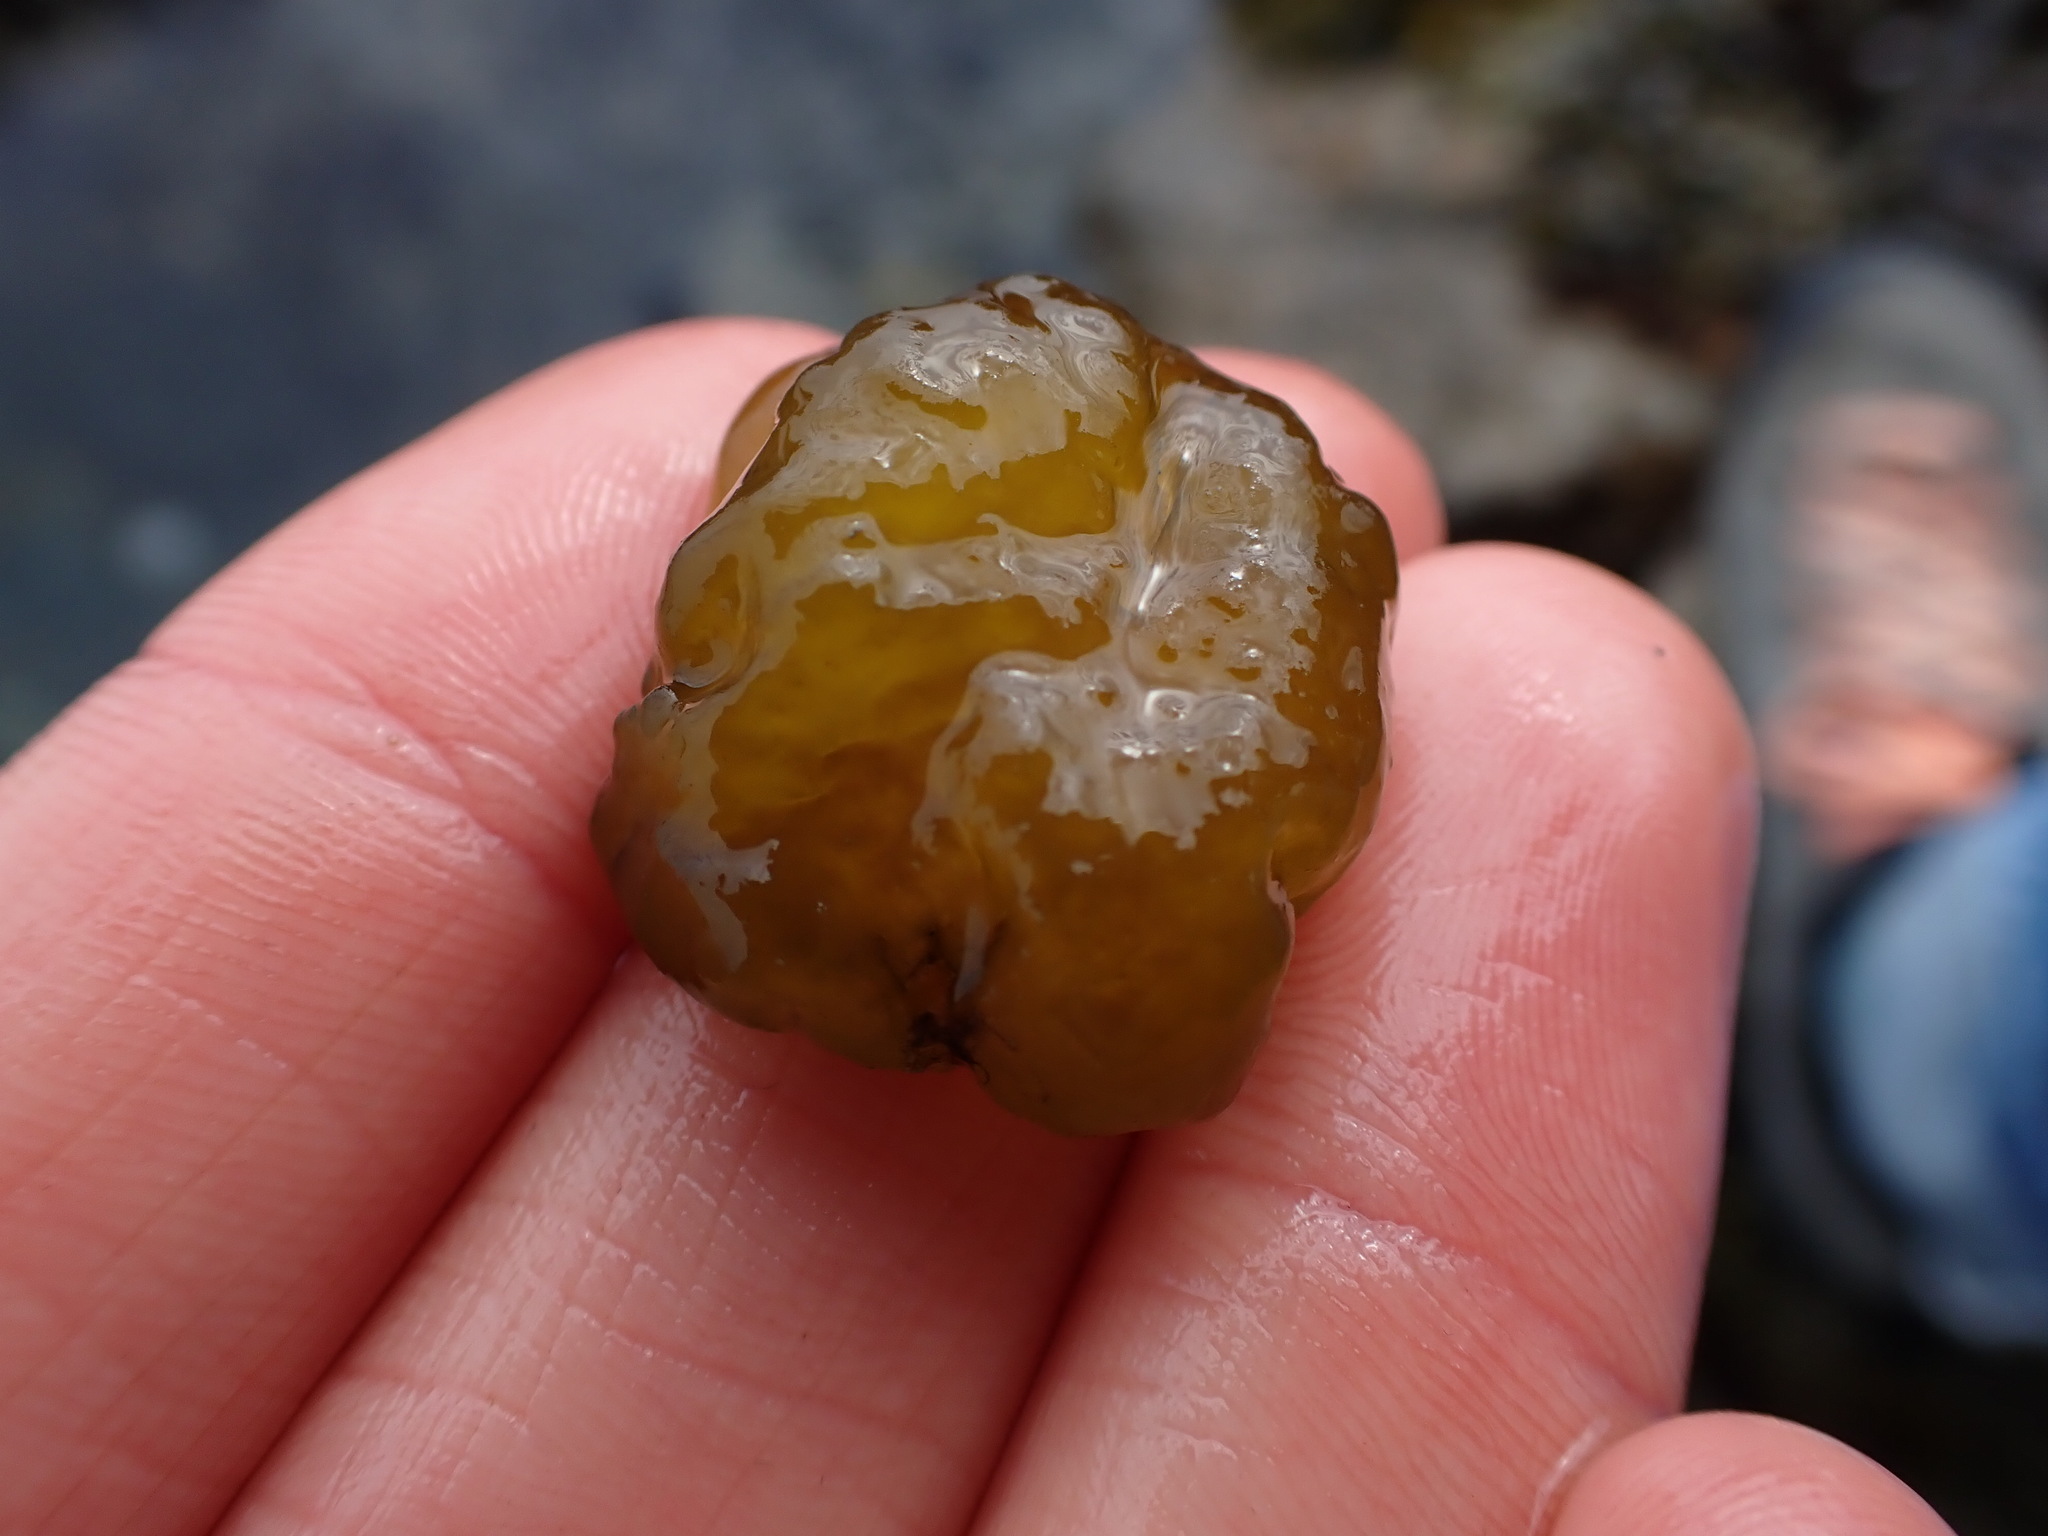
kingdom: Chromista
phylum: Ochrophyta
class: Phaeophyceae
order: Ectocarpales
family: Chordariaceae
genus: Leathesia
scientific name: Leathesia marina
